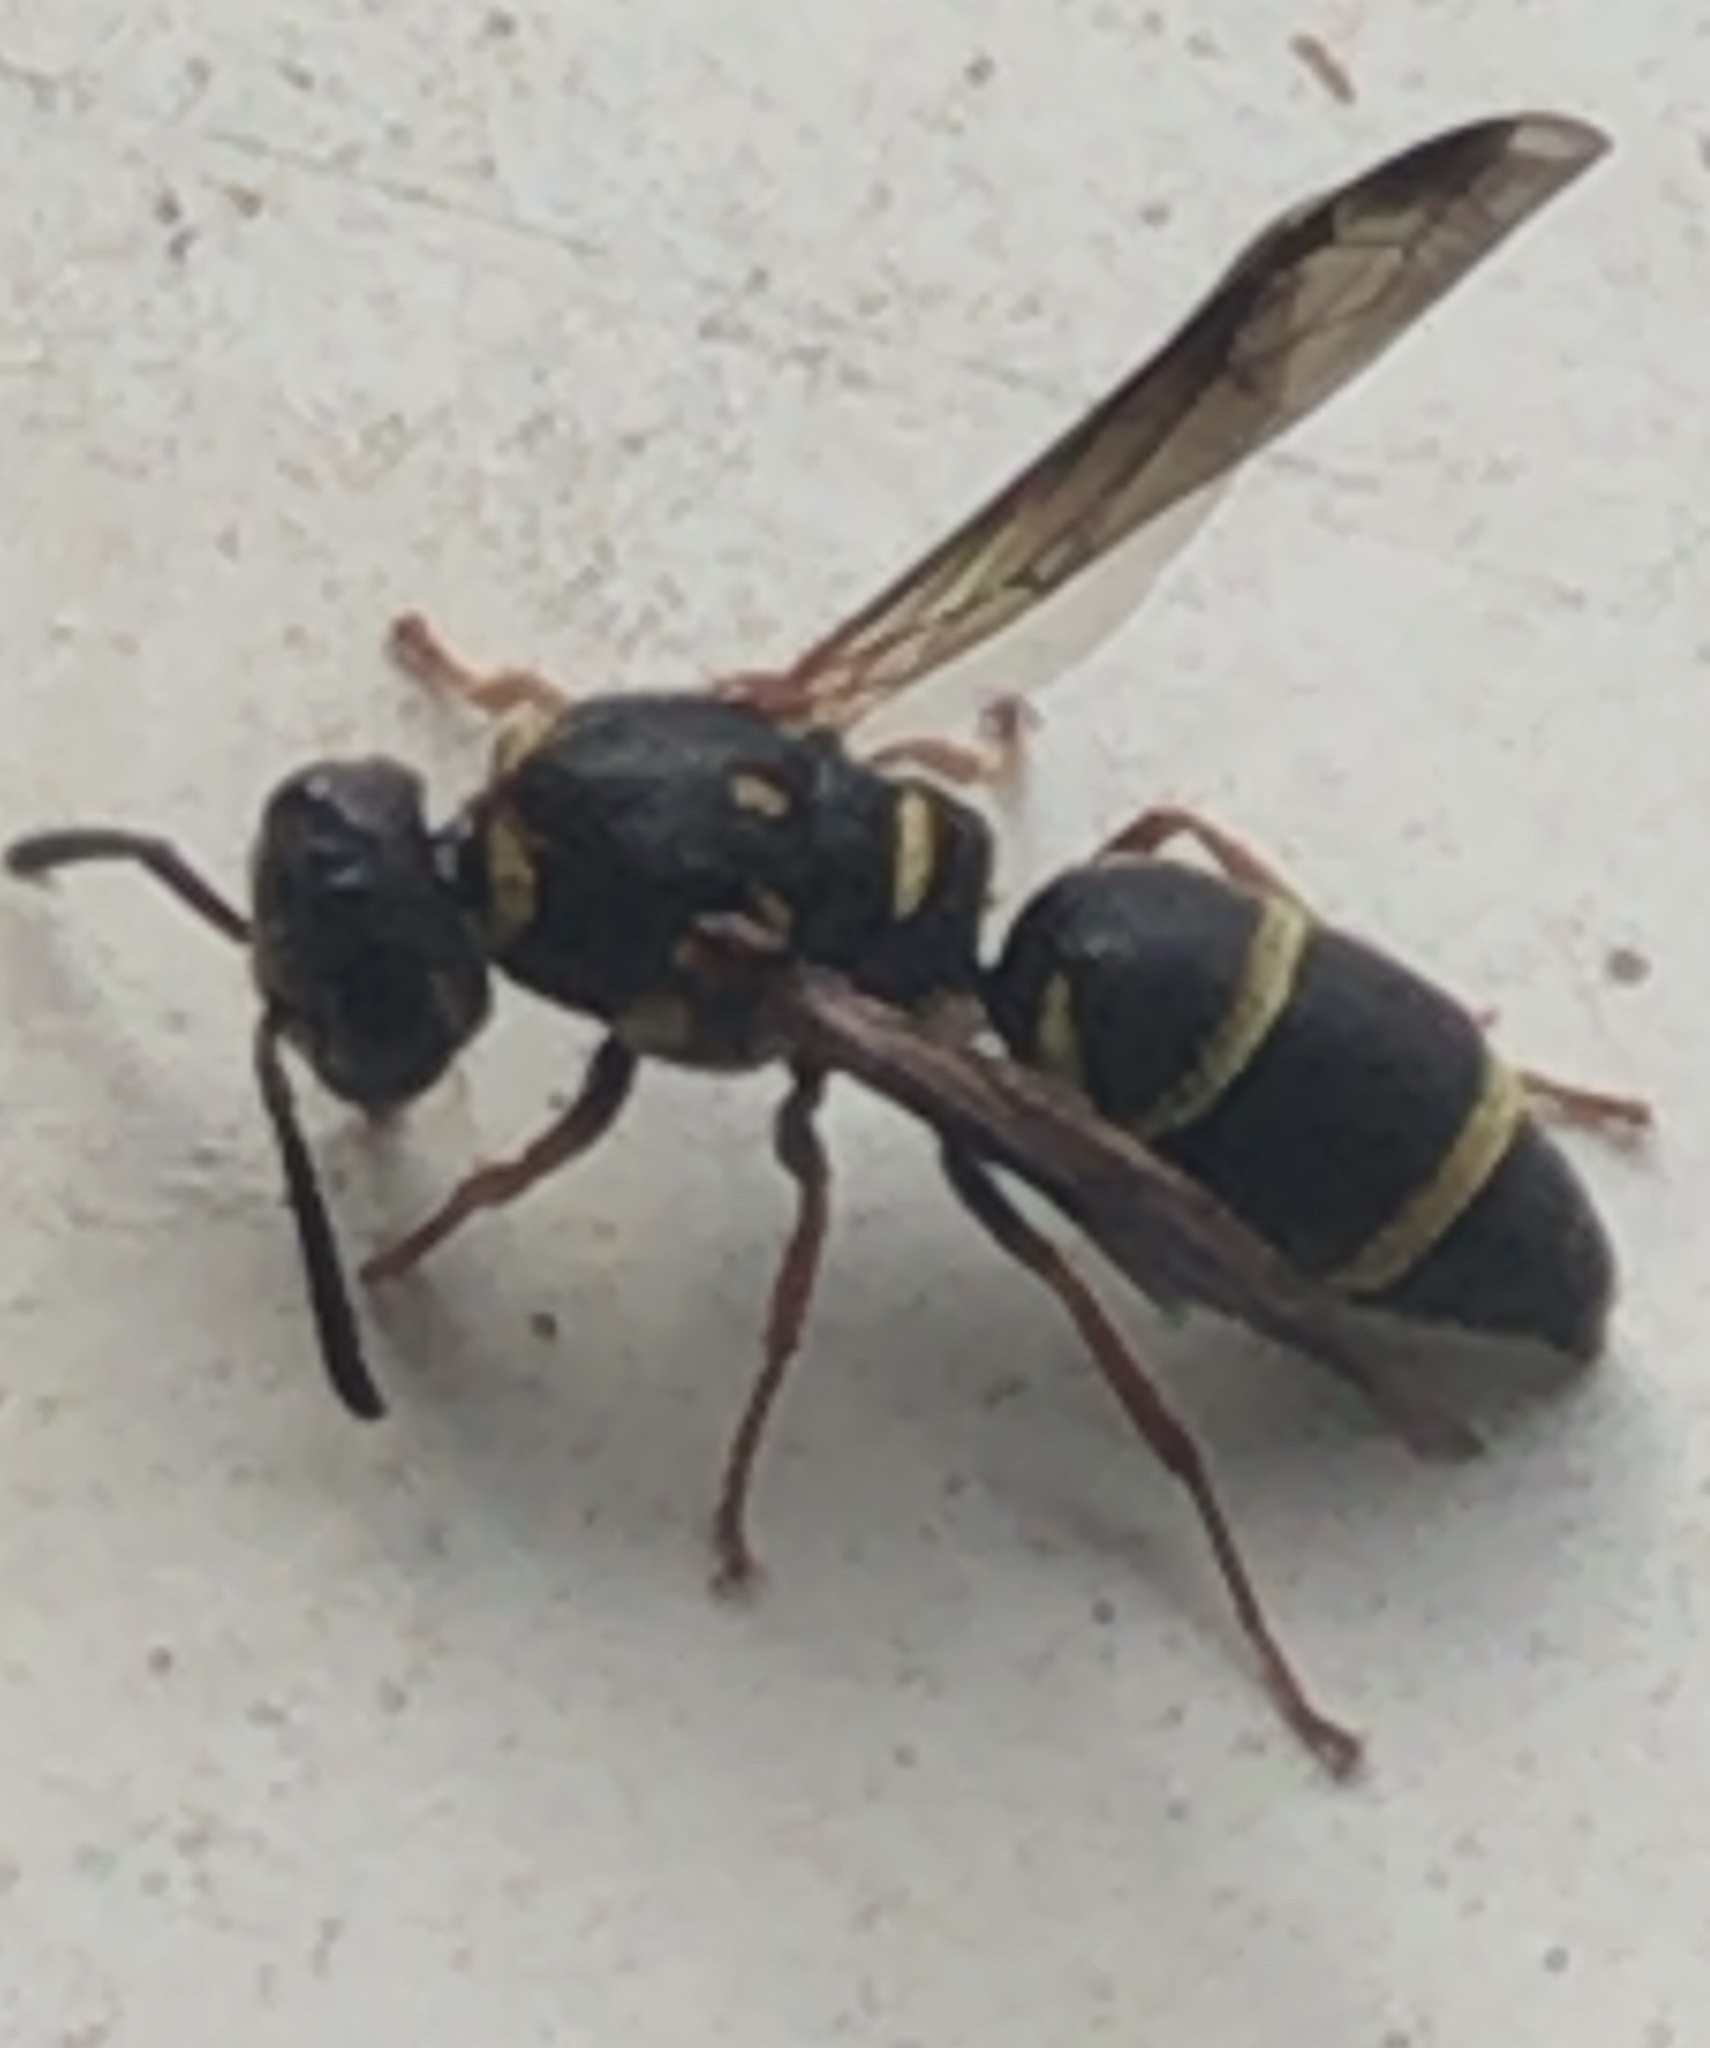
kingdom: Animalia
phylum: Arthropoda
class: Insecta
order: Hymenoptera
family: Eumenidae
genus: Parancistrocerus
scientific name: Parancistrocerus fulvipes
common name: Potter wasp
